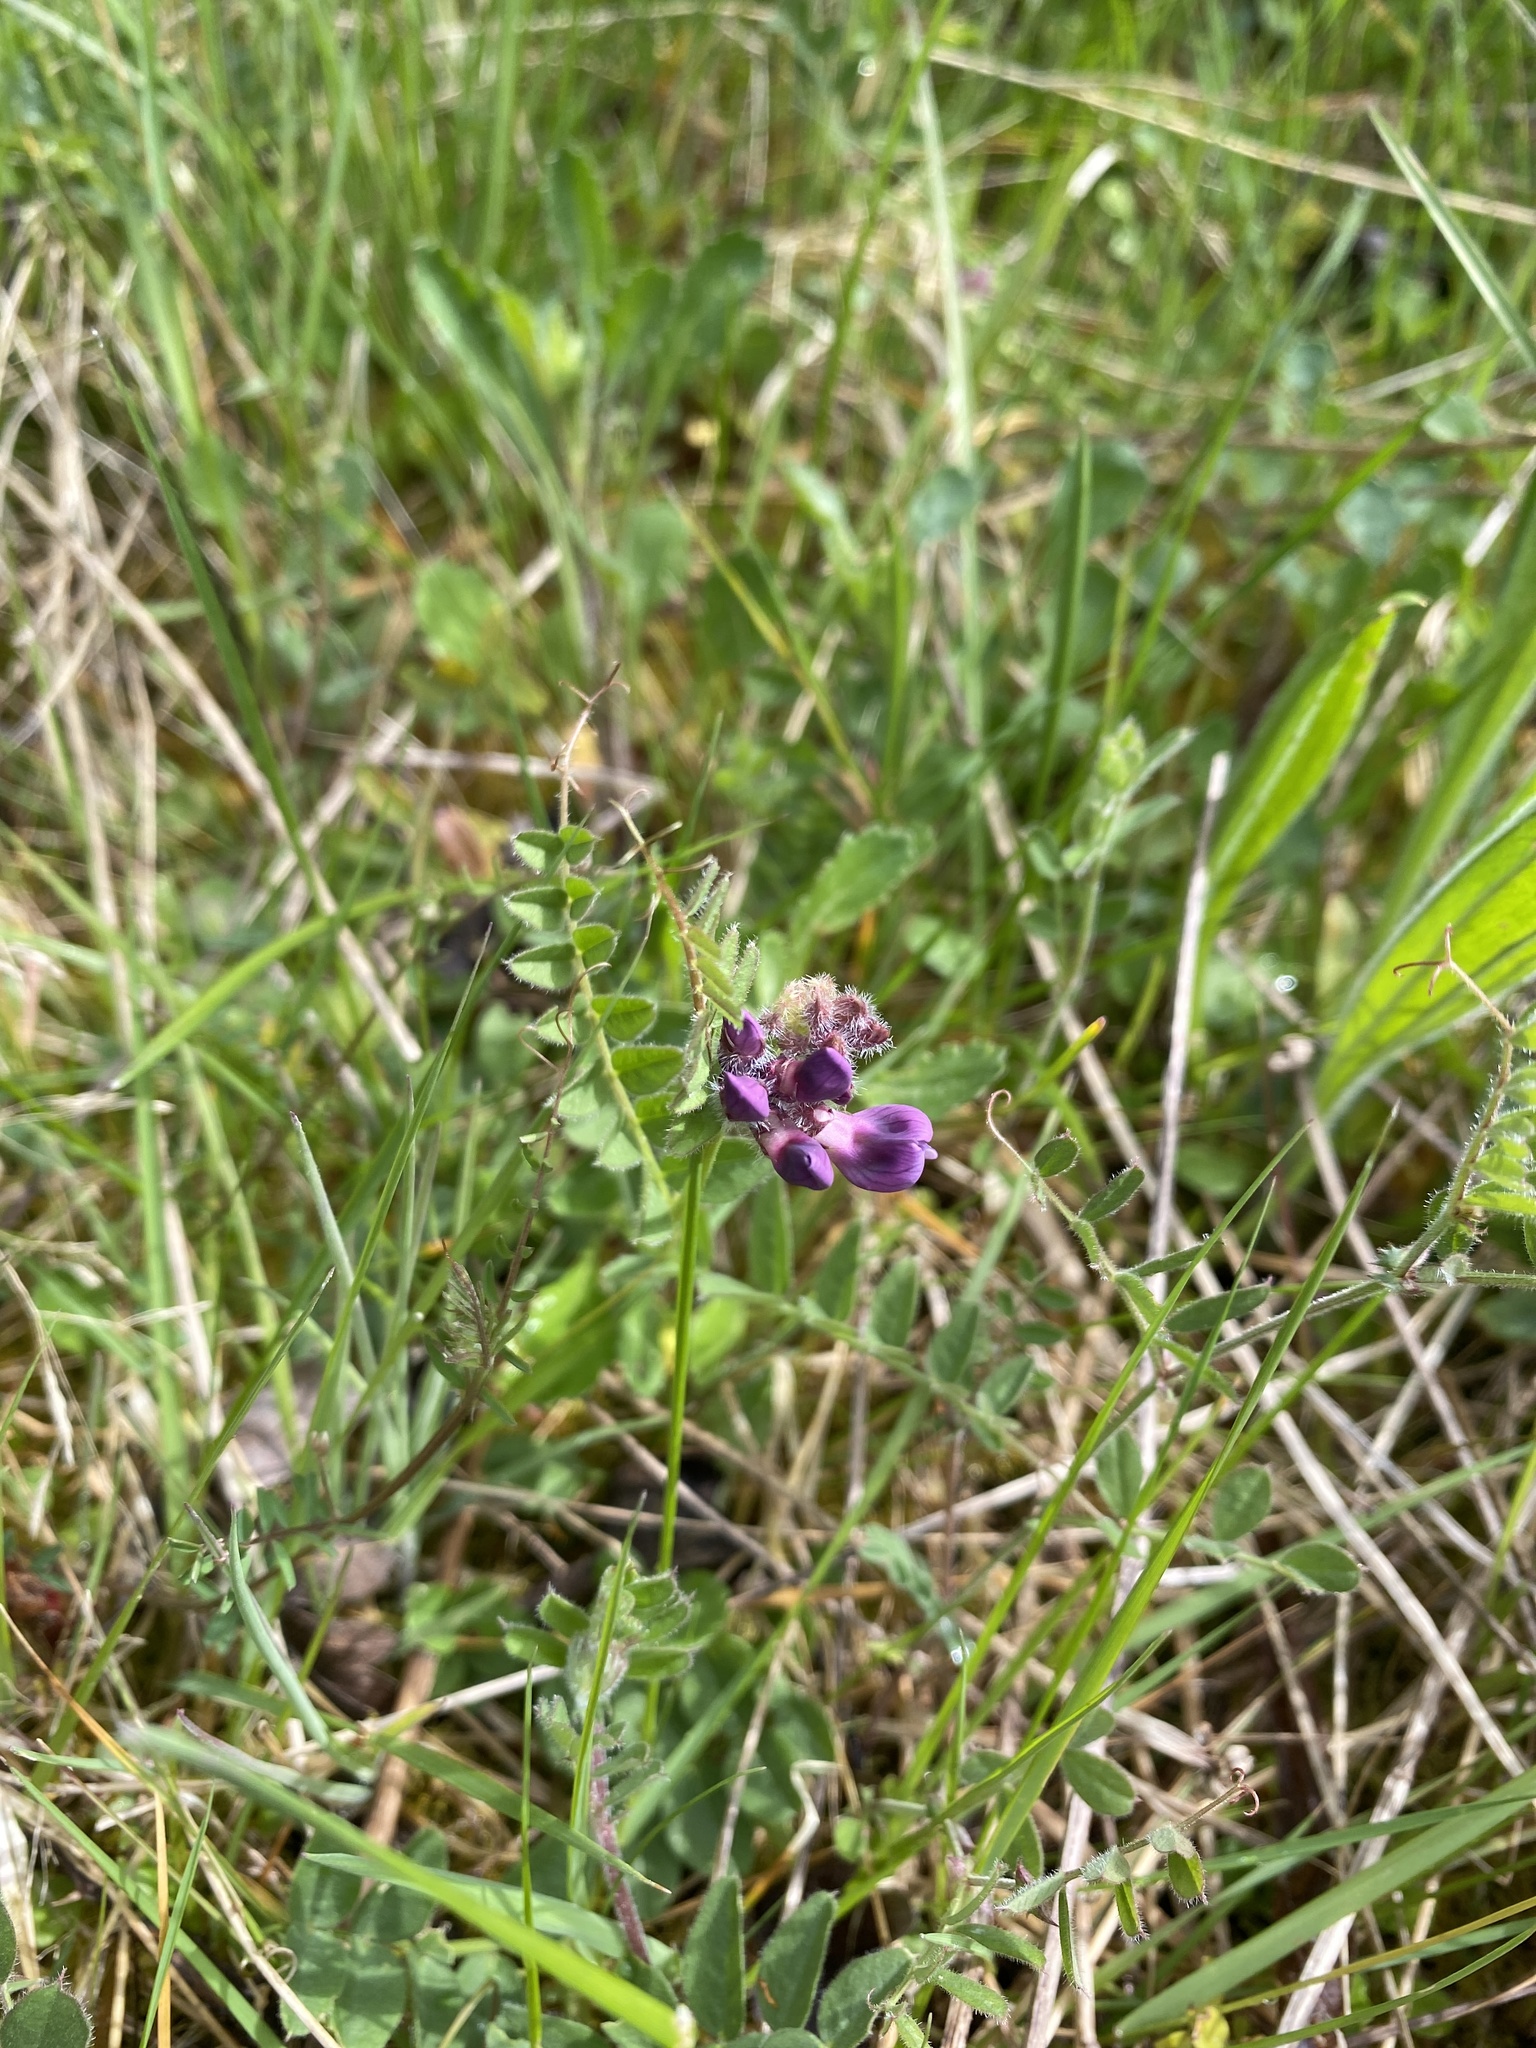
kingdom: Plantae
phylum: Tracheophyta
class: Magnoliopsida
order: Fabales
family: Fabaceae
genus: Vicia
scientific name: Vicia sativa
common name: Garden vetch
